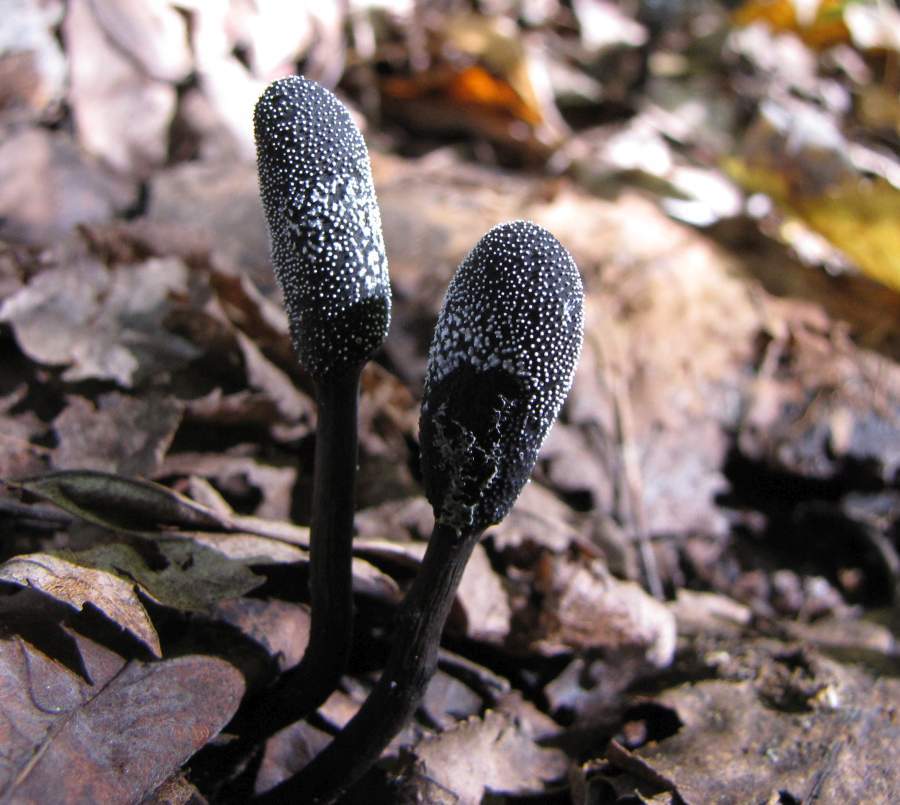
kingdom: Fungi
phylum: Ascomycota
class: Sordariomycetes
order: Hypocreales
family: Ophiocordycipitaceae
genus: Tolypocladium
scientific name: Tolypocladium ophioglossoides
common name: Snaketongue truffleclub
